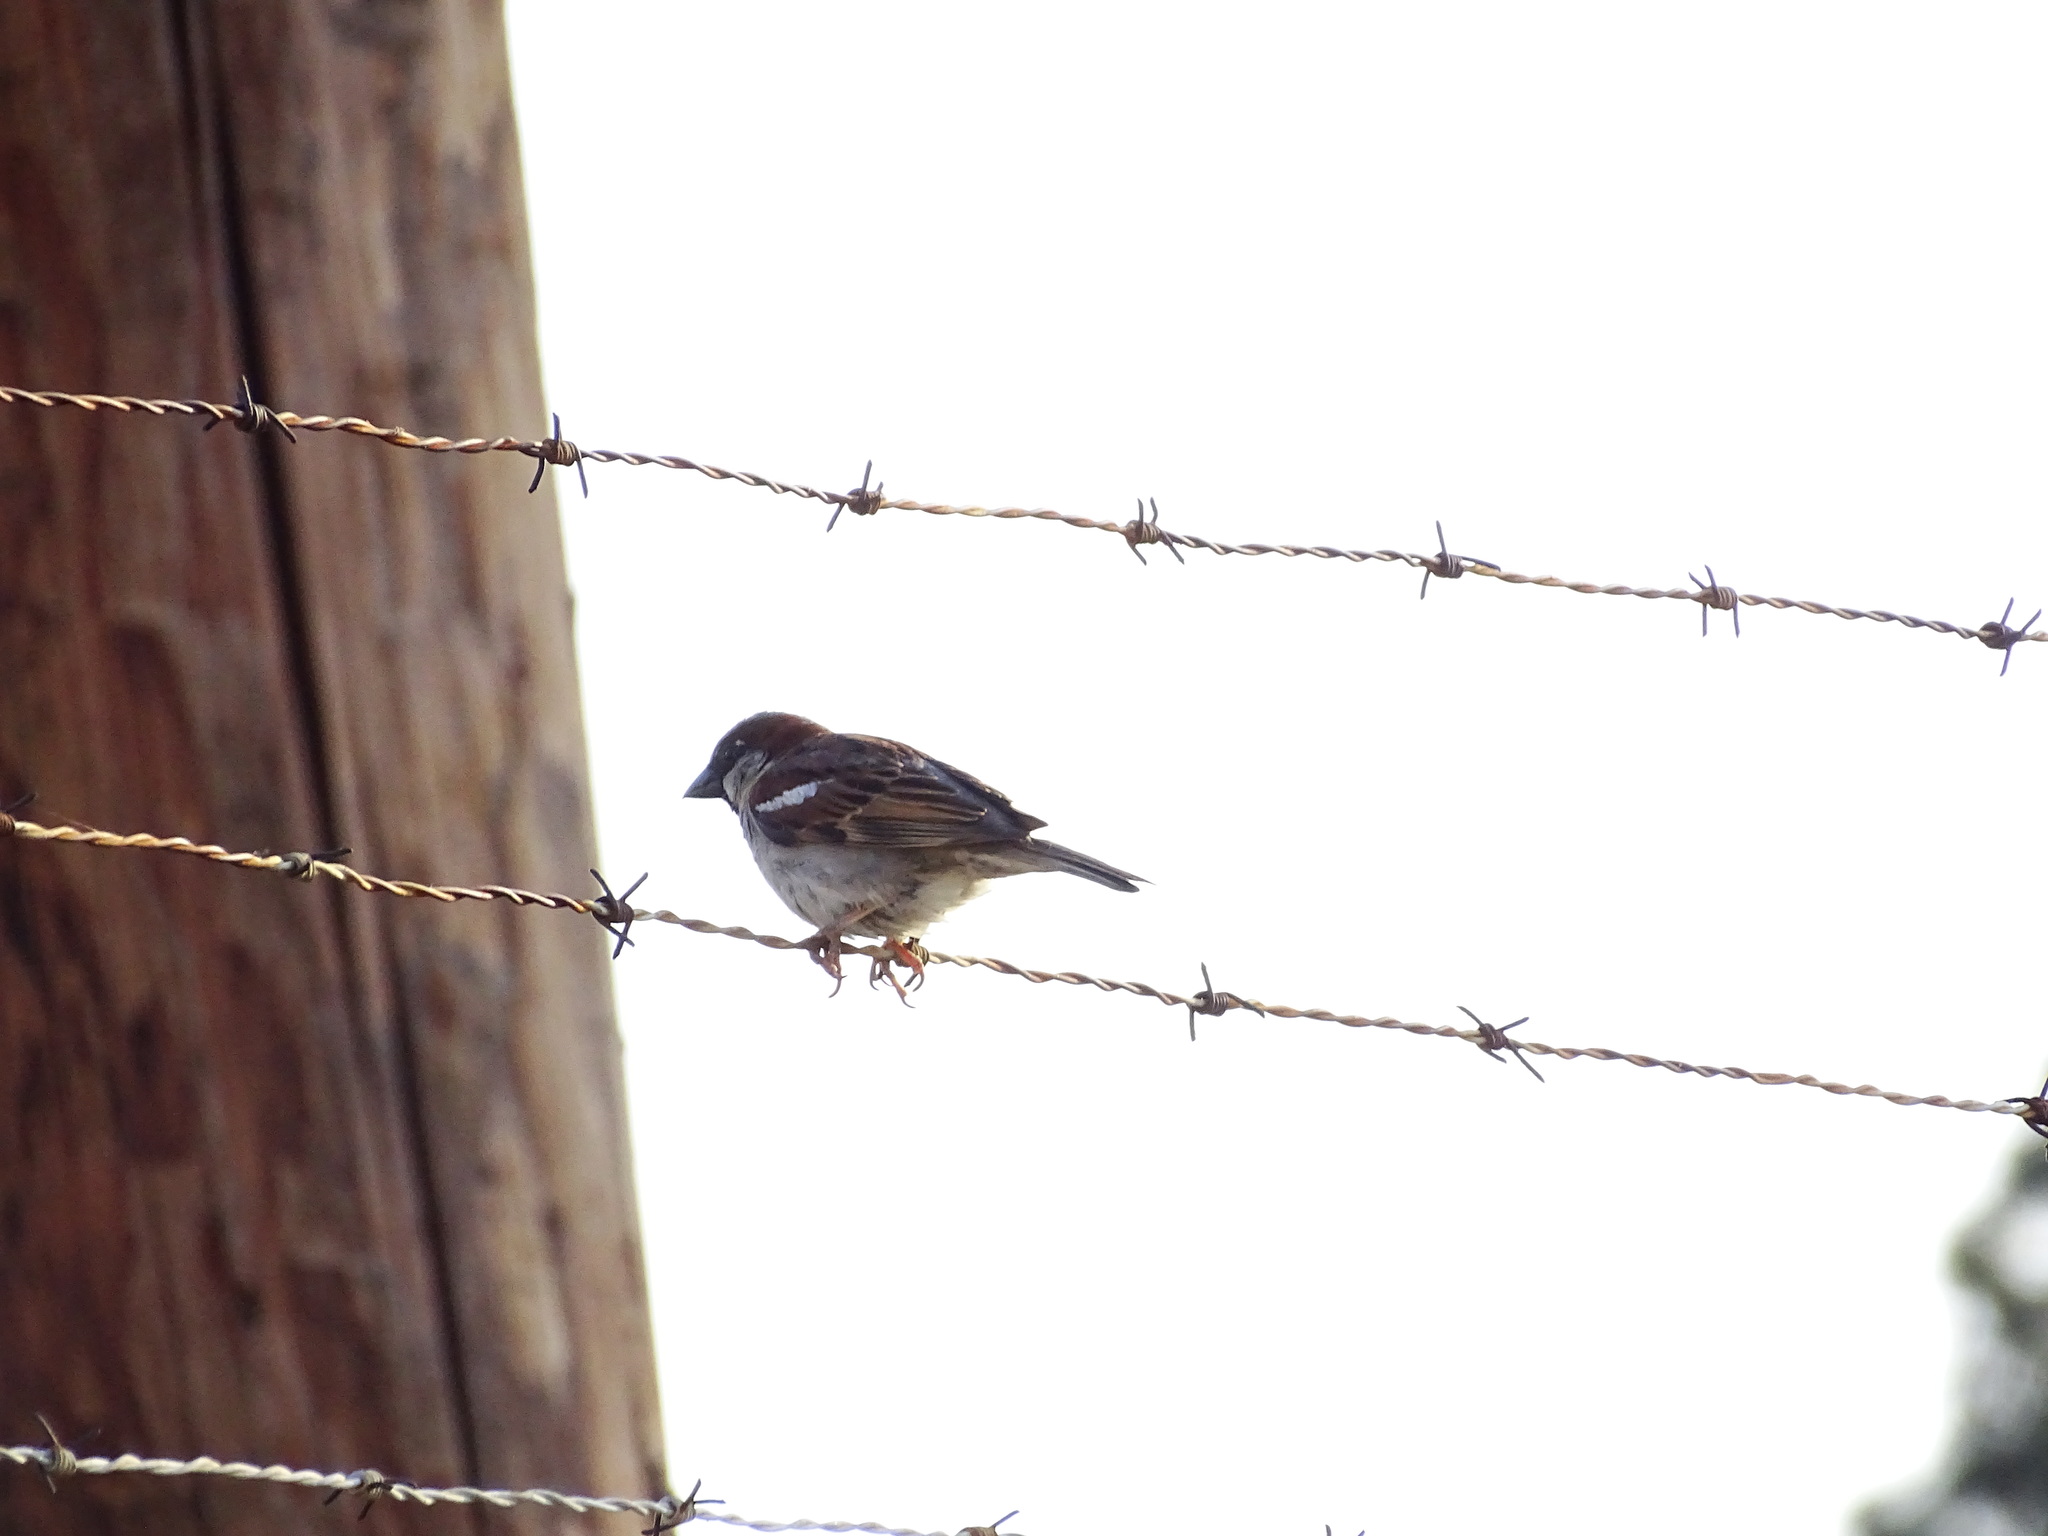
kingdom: Animalia
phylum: Chordata
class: Aves
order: Passeriformes
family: Passeridae
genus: Passer
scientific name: Passer domesticus
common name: House sparrow
